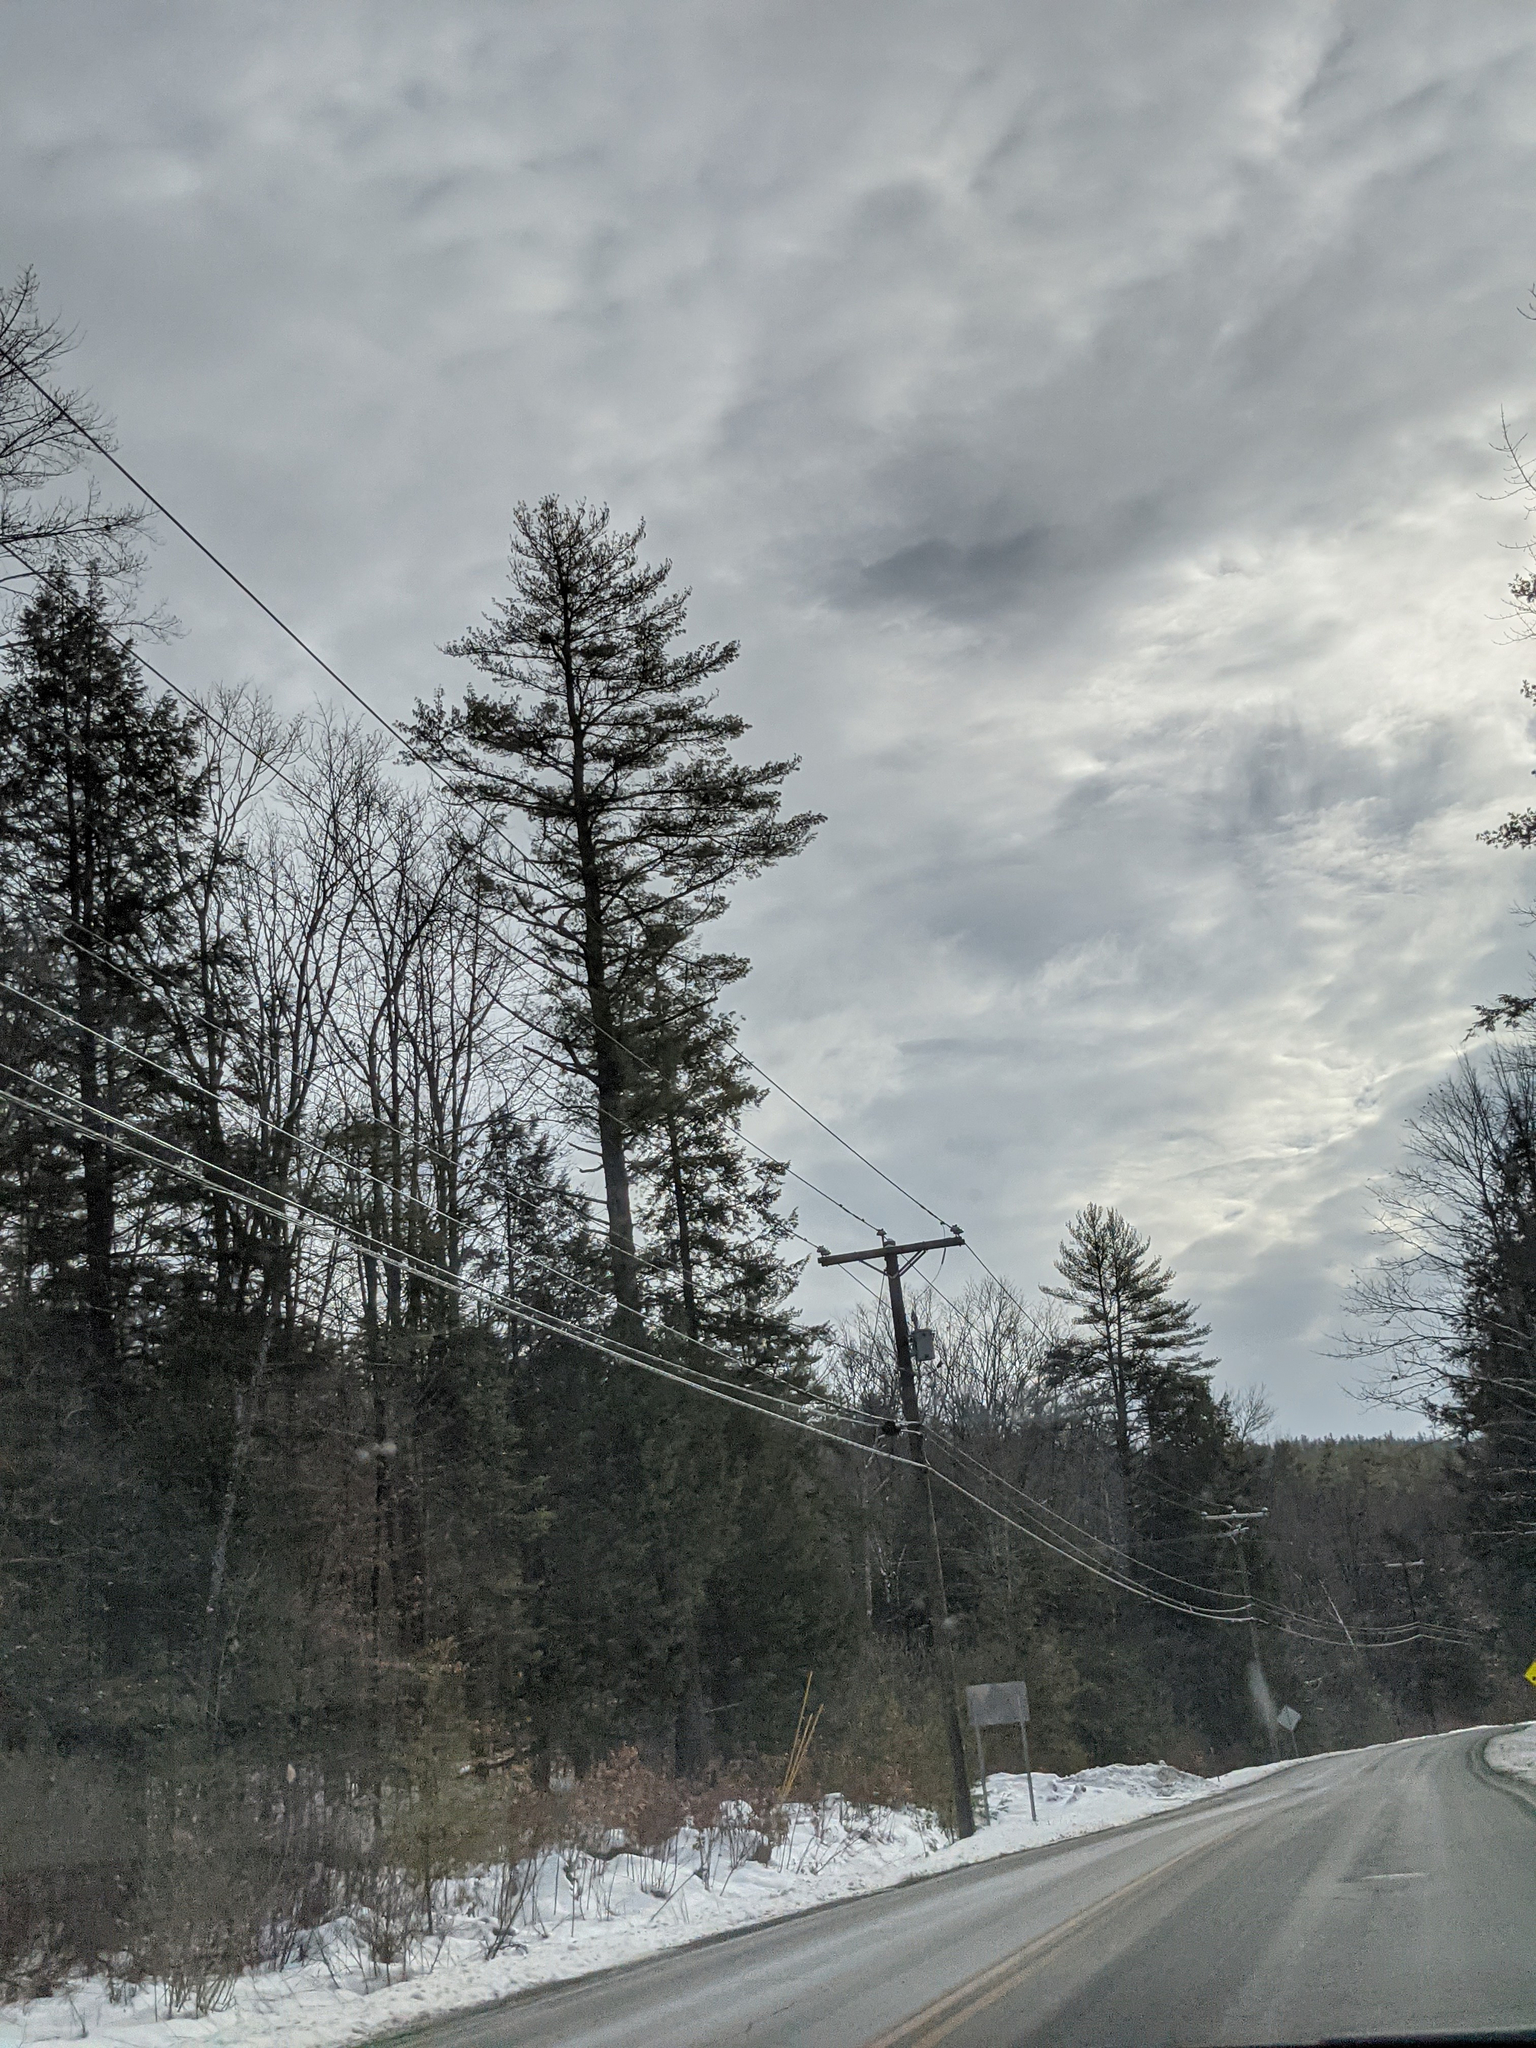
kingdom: Plantae
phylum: Tracheophyta
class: Pinopsida
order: Pinales
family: Pinaceae
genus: Pinus
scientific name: Pinus strobus
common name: Weymouth pine
